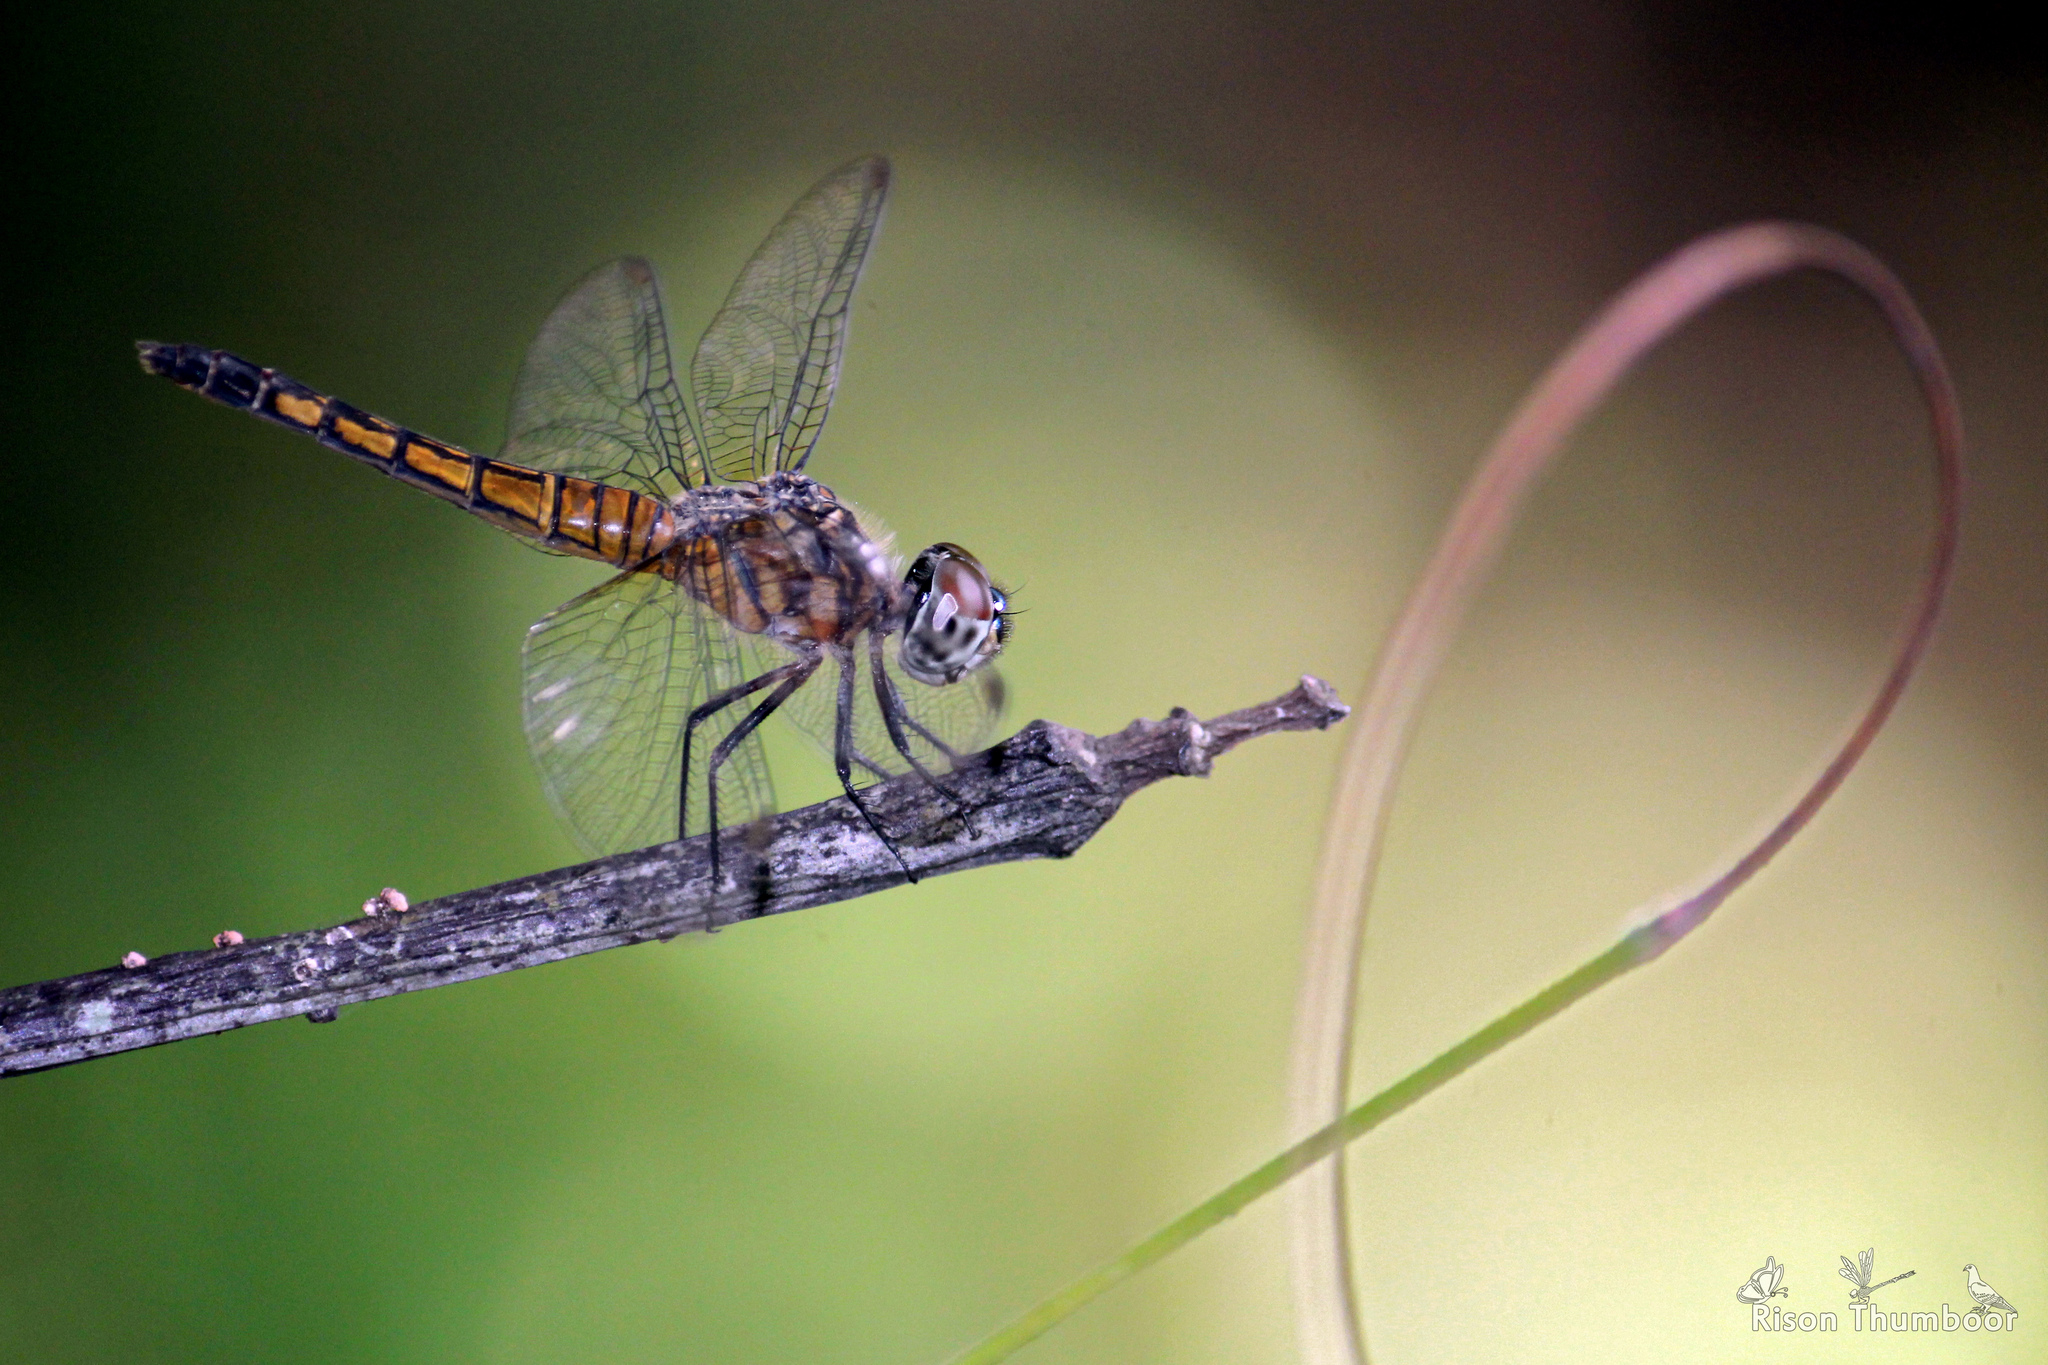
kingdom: Animalia
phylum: Arthropoda
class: Insecta
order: Odonata
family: Libellulidae
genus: Brachydiplax
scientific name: Brachydiplax chalybea
